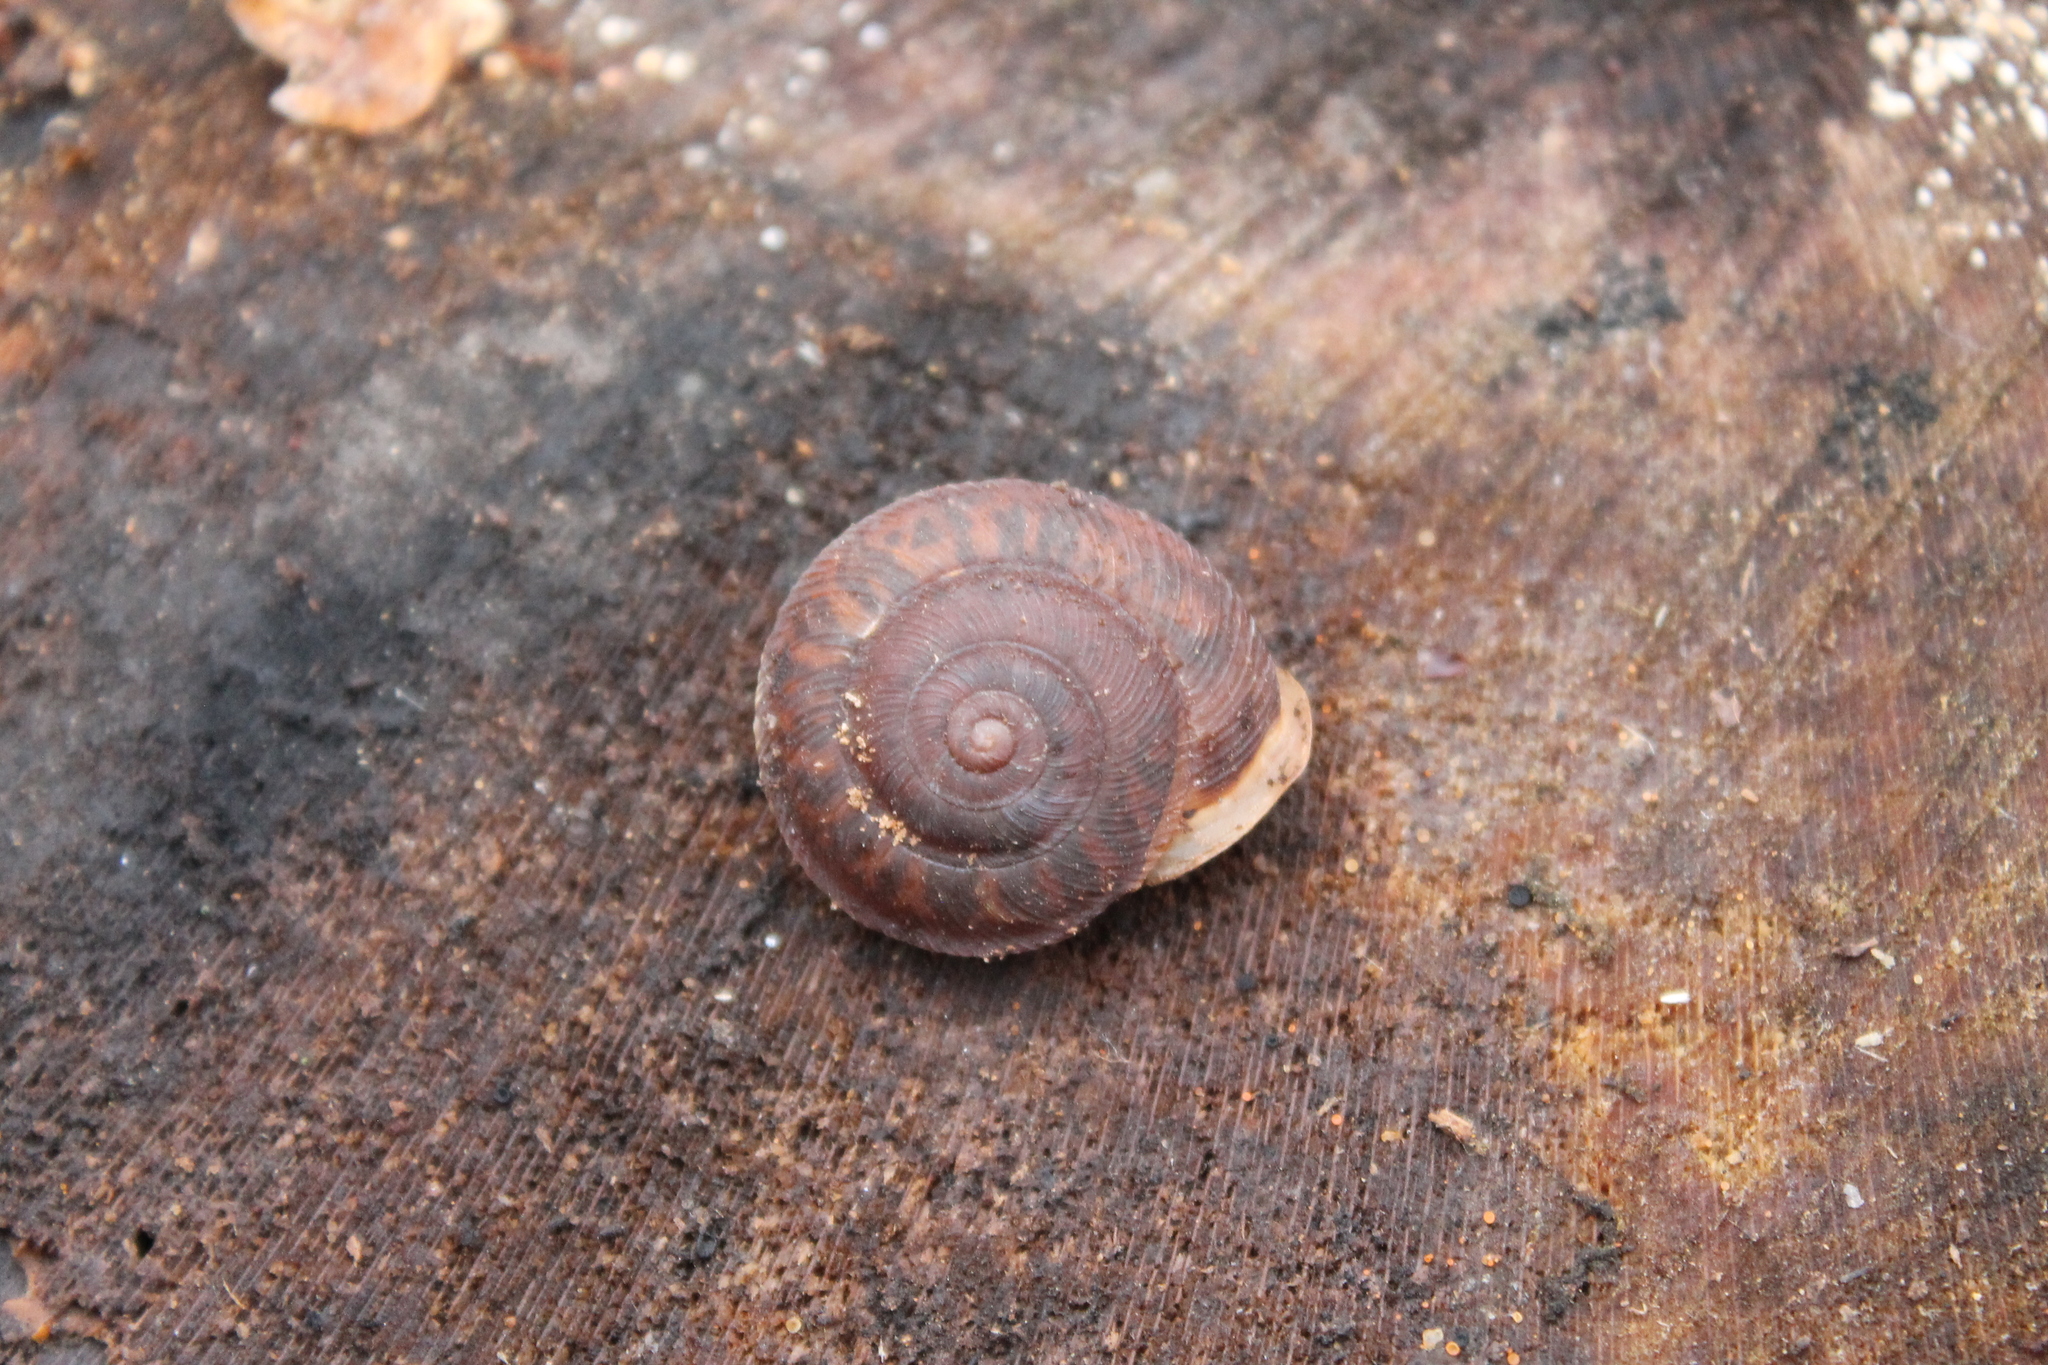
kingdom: Animalia
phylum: Mollusca
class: Gastropoda
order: Stylommatophora
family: Polygyridae
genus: Xolotrema
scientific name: Xolotrema obstrictum
